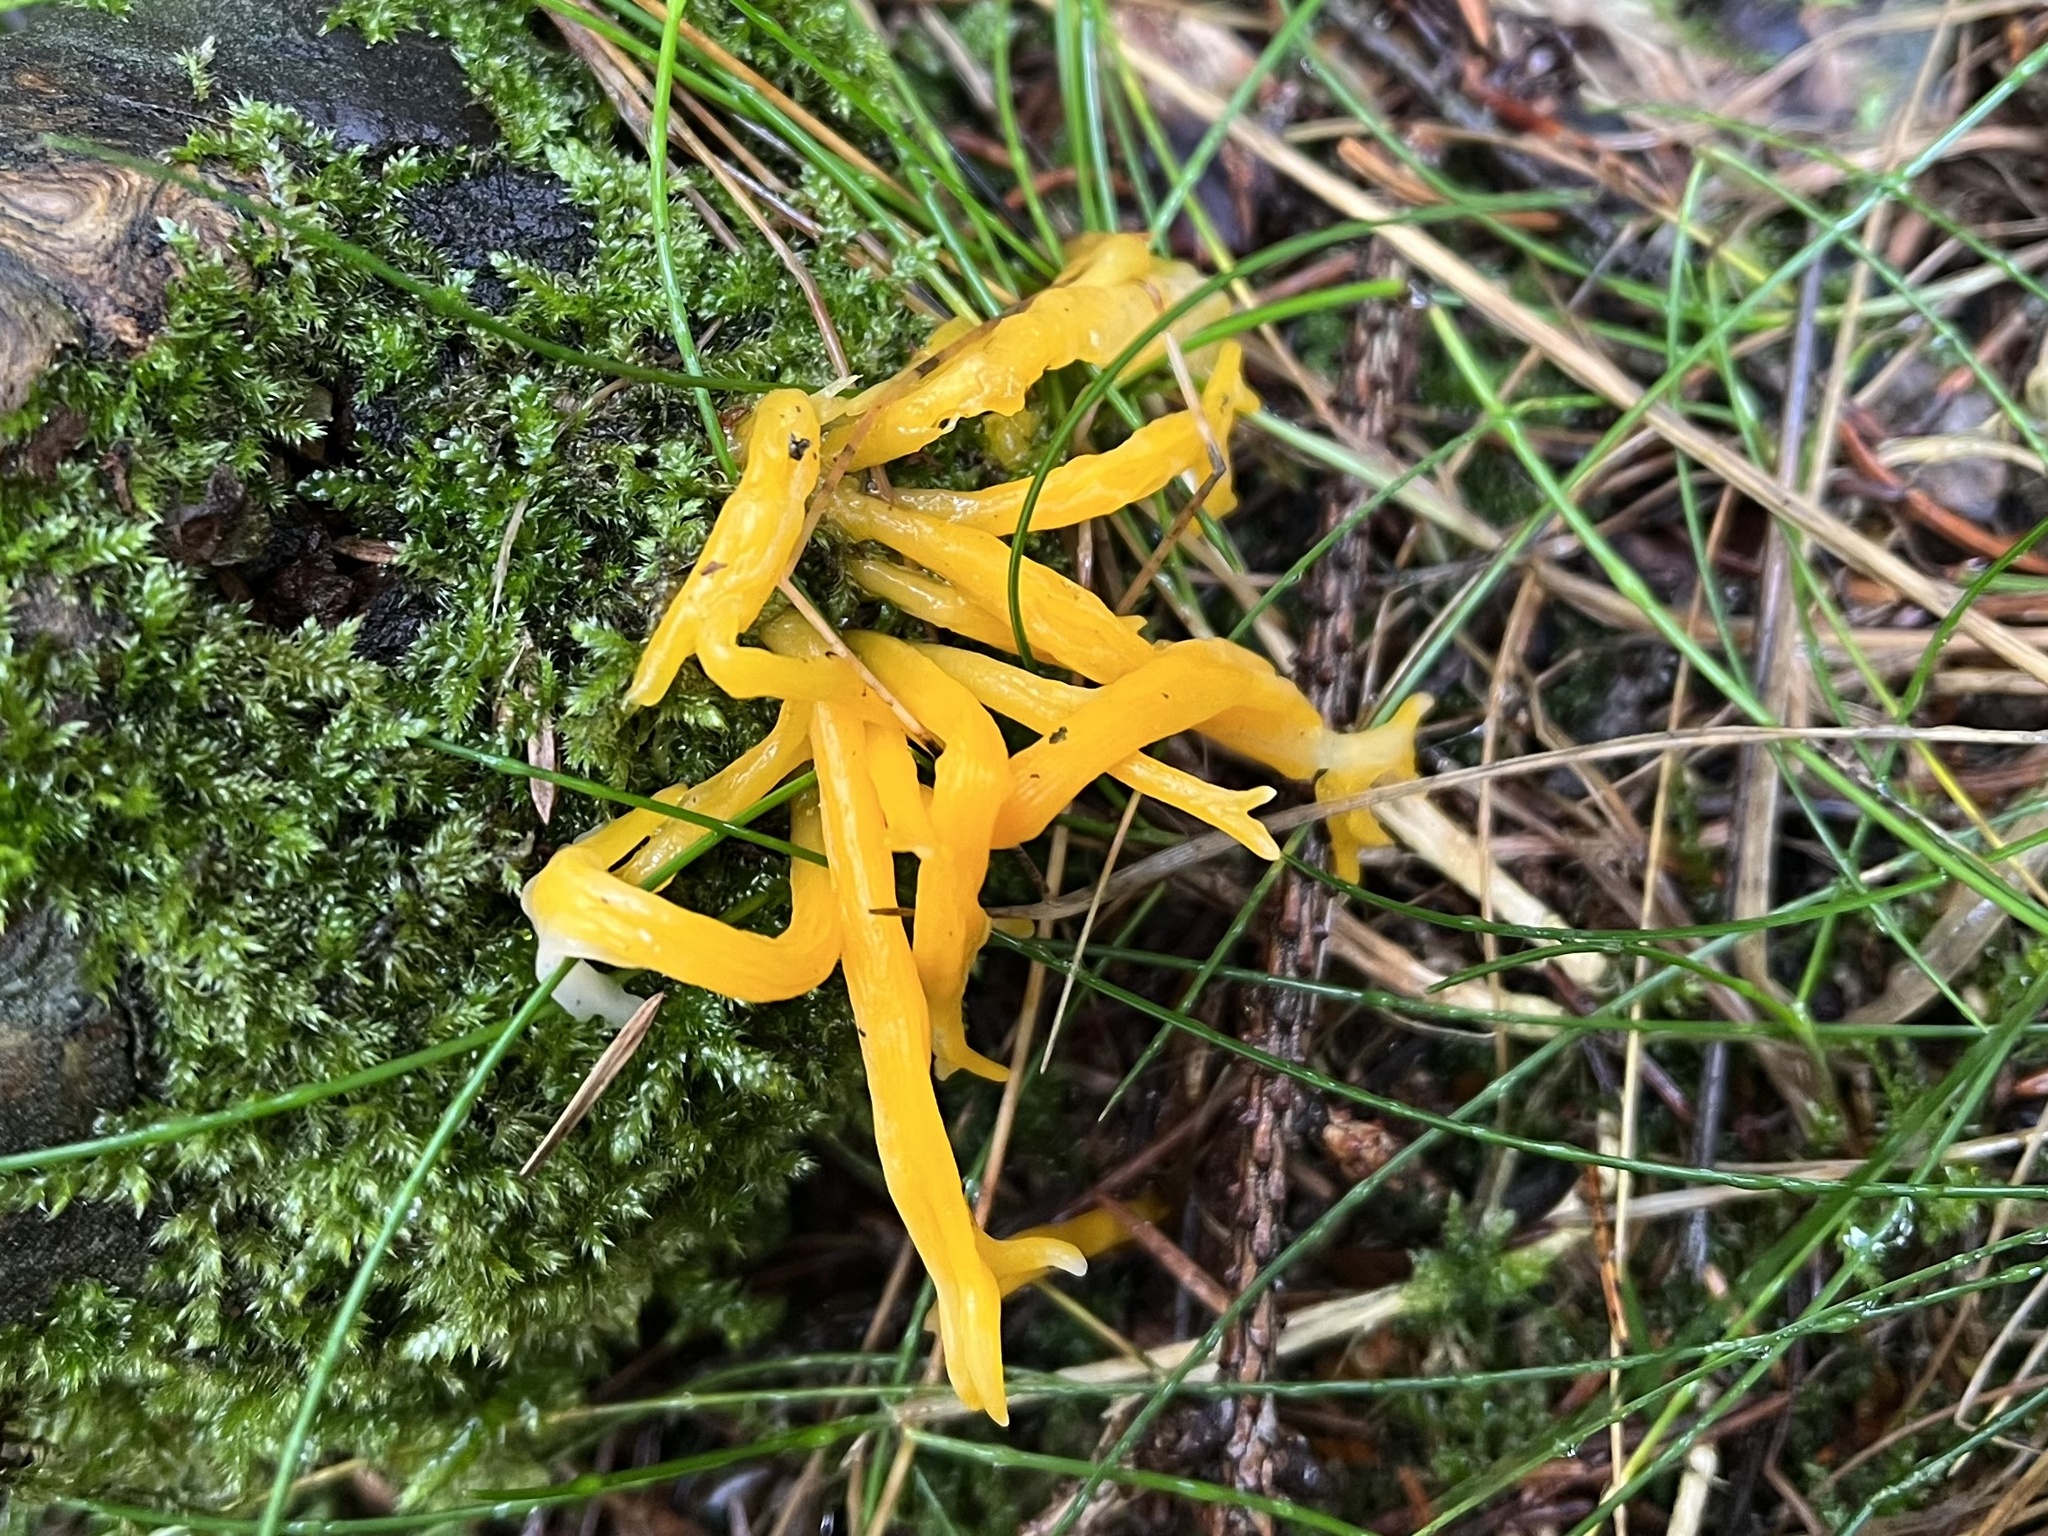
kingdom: Fungi
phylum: Basidiomycota
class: Dacrymycetes
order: Dacrymycetales
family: Dacrymycetaceae
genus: Calocera
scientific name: Calocera viscosa
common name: Yellow stagshorn
